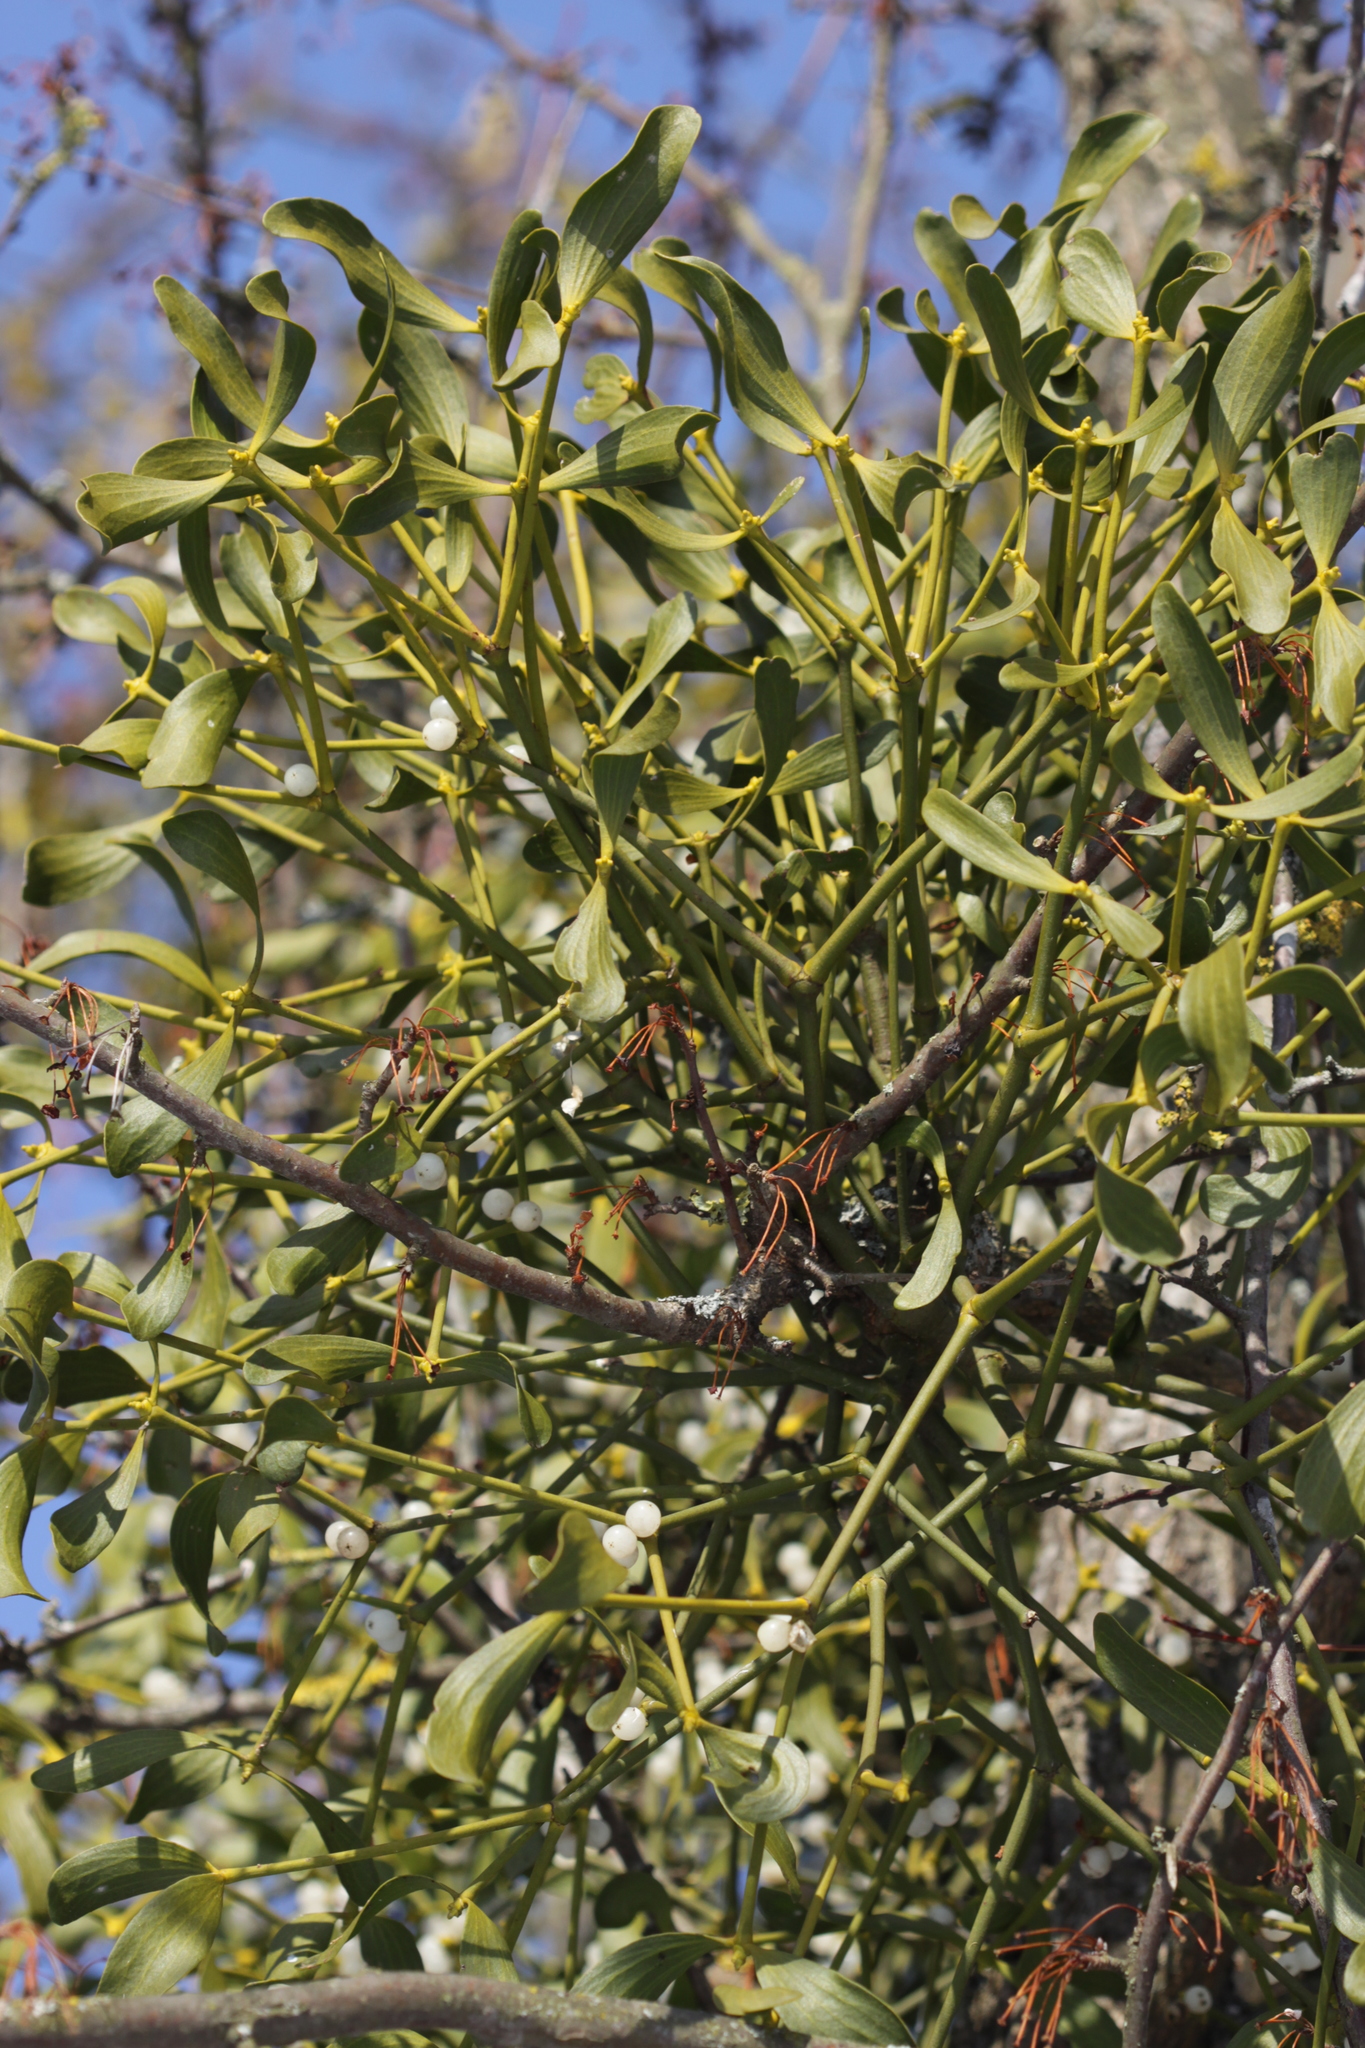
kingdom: Plantae
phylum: Tracheophyta
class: Magnoliopsida
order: Santalales
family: Viscaceae
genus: Viscum
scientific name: Viscum album
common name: Mistletoe
